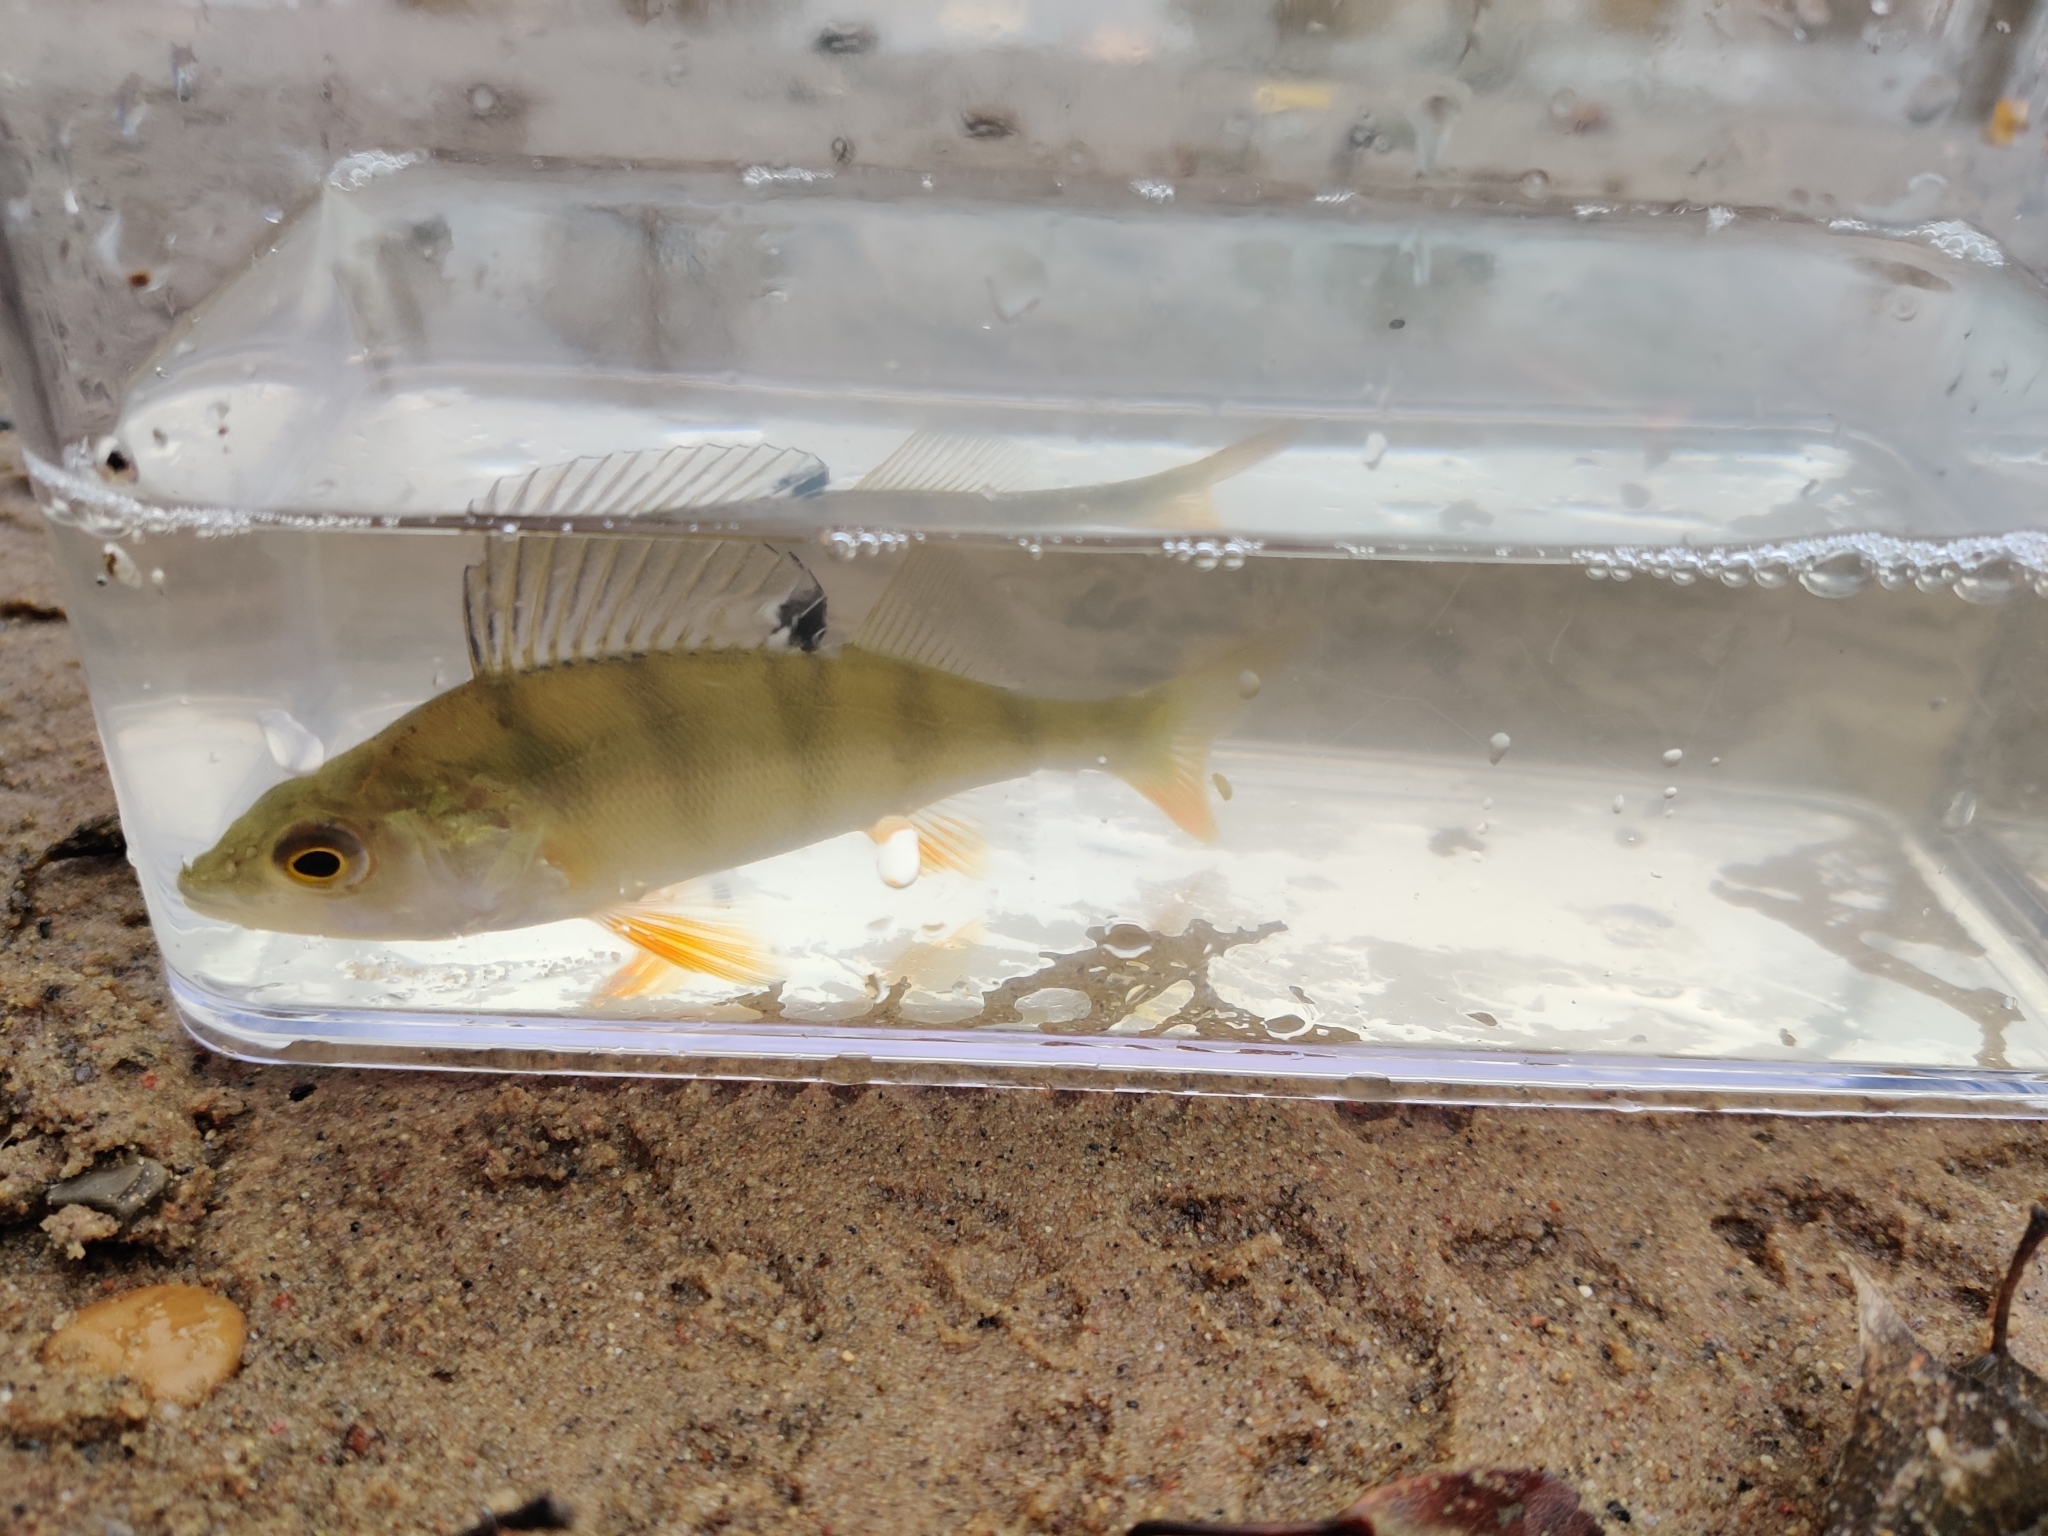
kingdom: Animalia
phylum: Chordata
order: Perciformes
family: Percidae
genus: Perca
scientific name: Perca fluviatilis
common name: Perch
